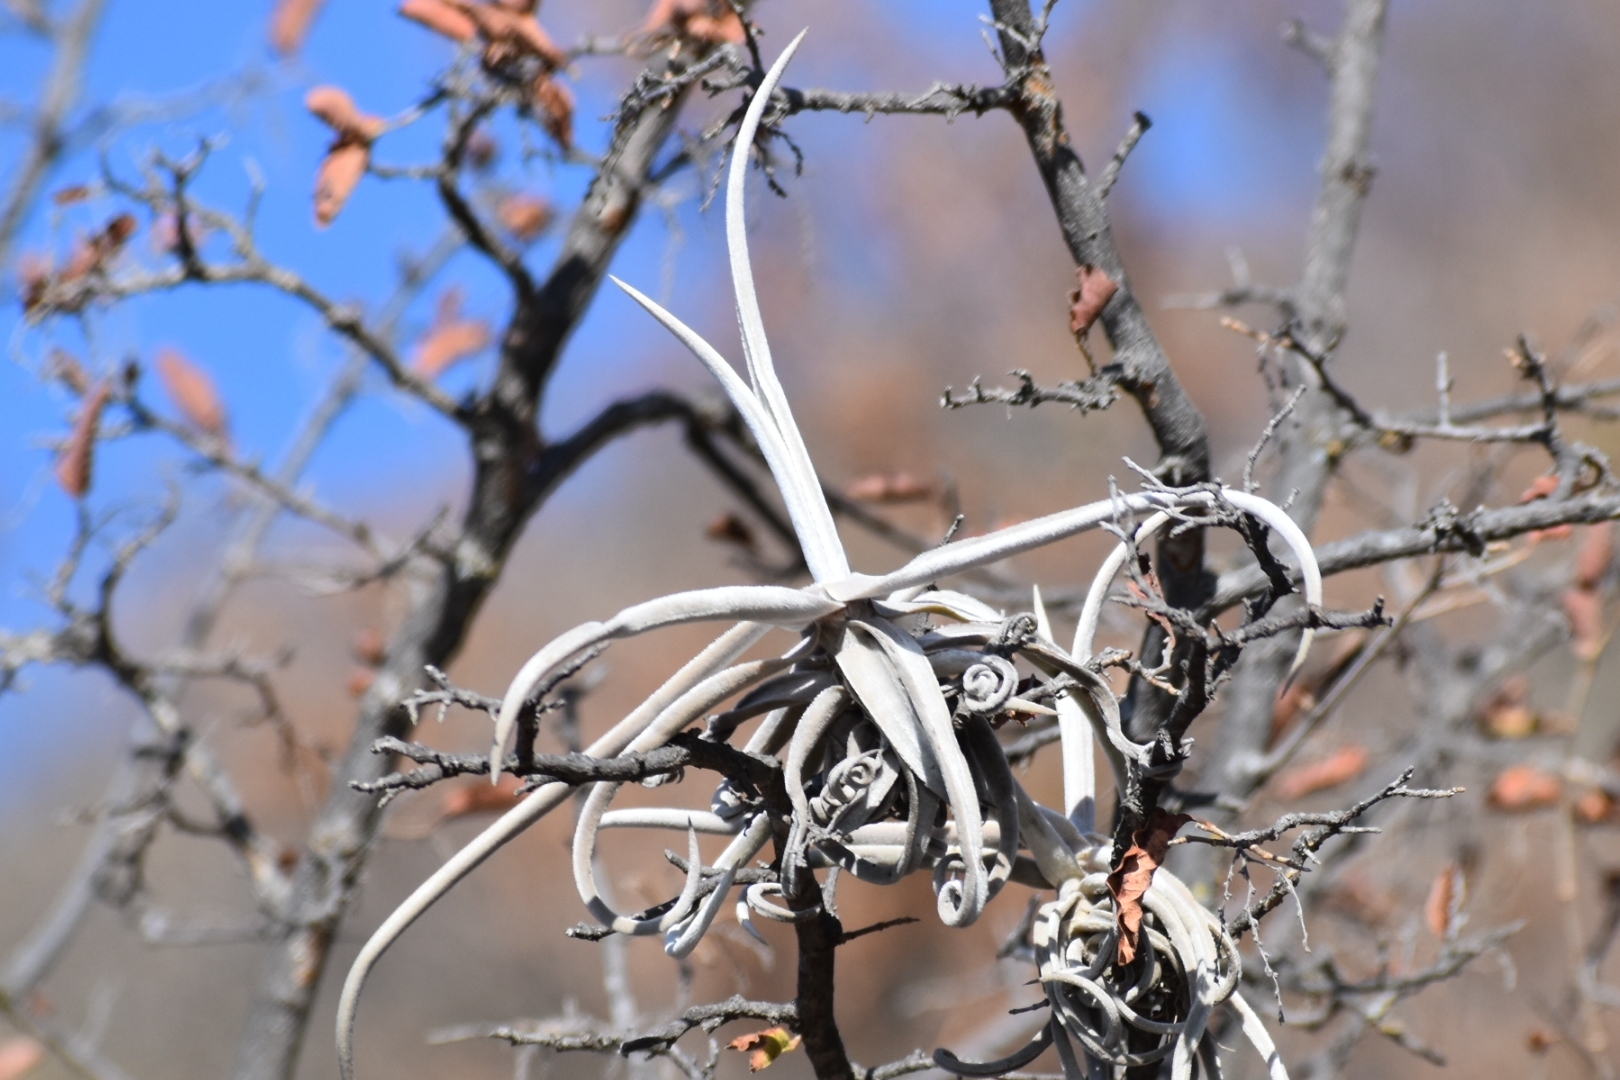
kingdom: Plantae
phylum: Tracheophyta
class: Liliopsida
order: Poales
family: Bromeliaceae
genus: Tillandsia
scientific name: Tillandsia duratii
